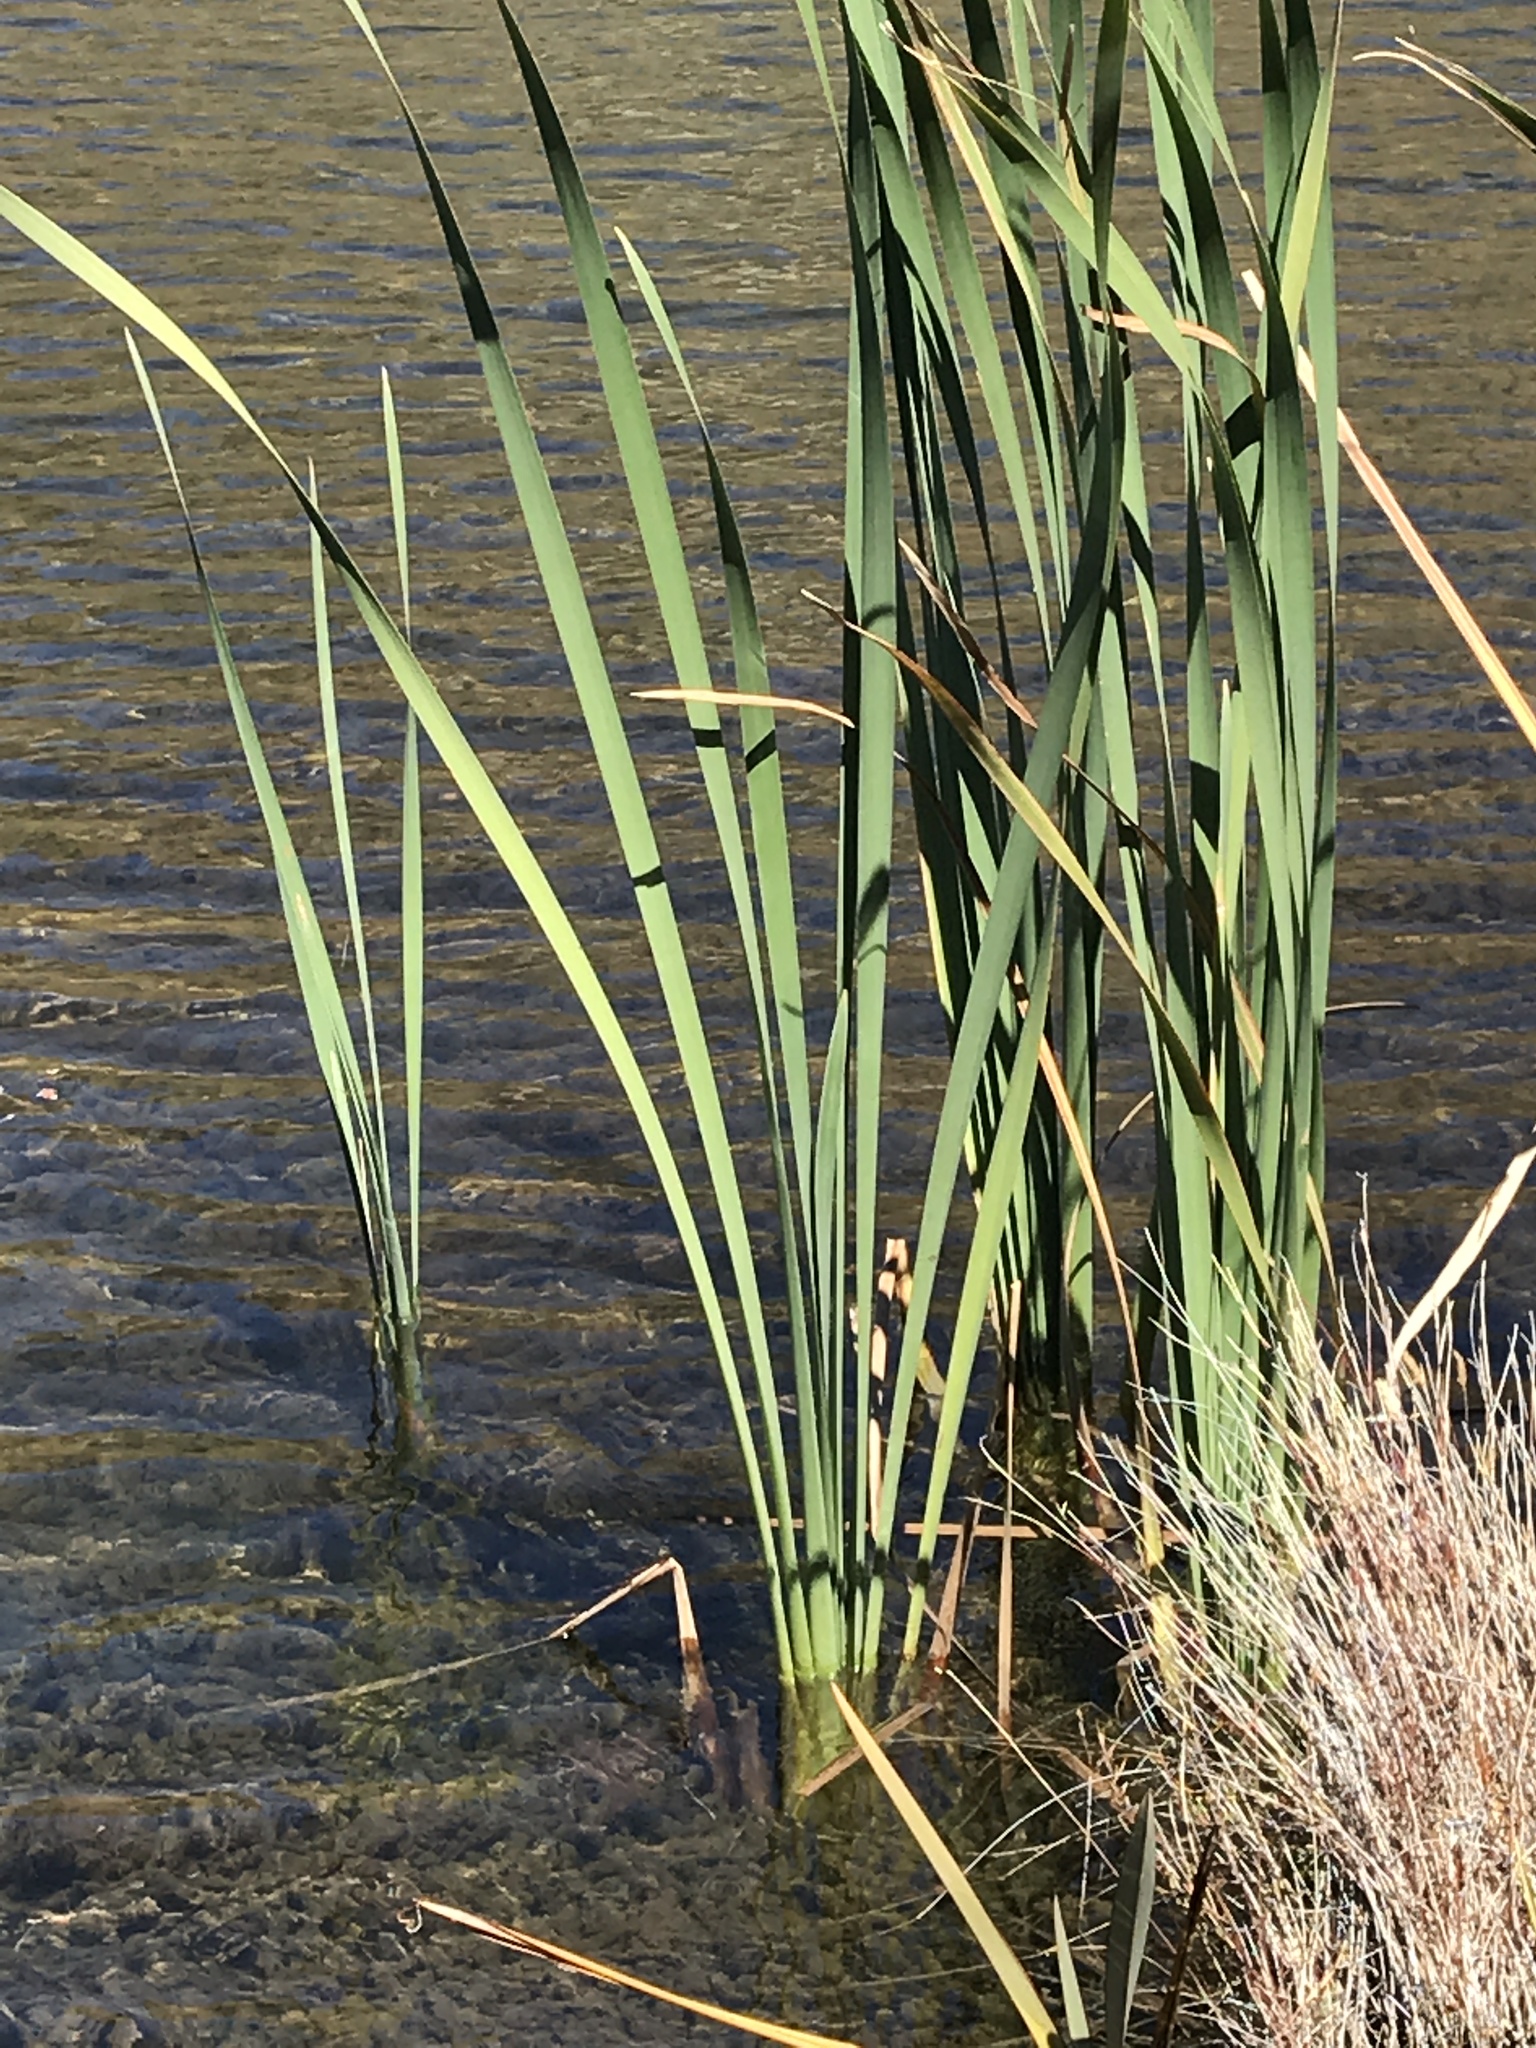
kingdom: Plantae
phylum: Tracheophyta
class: Liliopsida
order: Poales
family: Typhaceae
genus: Typha
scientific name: Typha orientalis
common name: Bullrush
